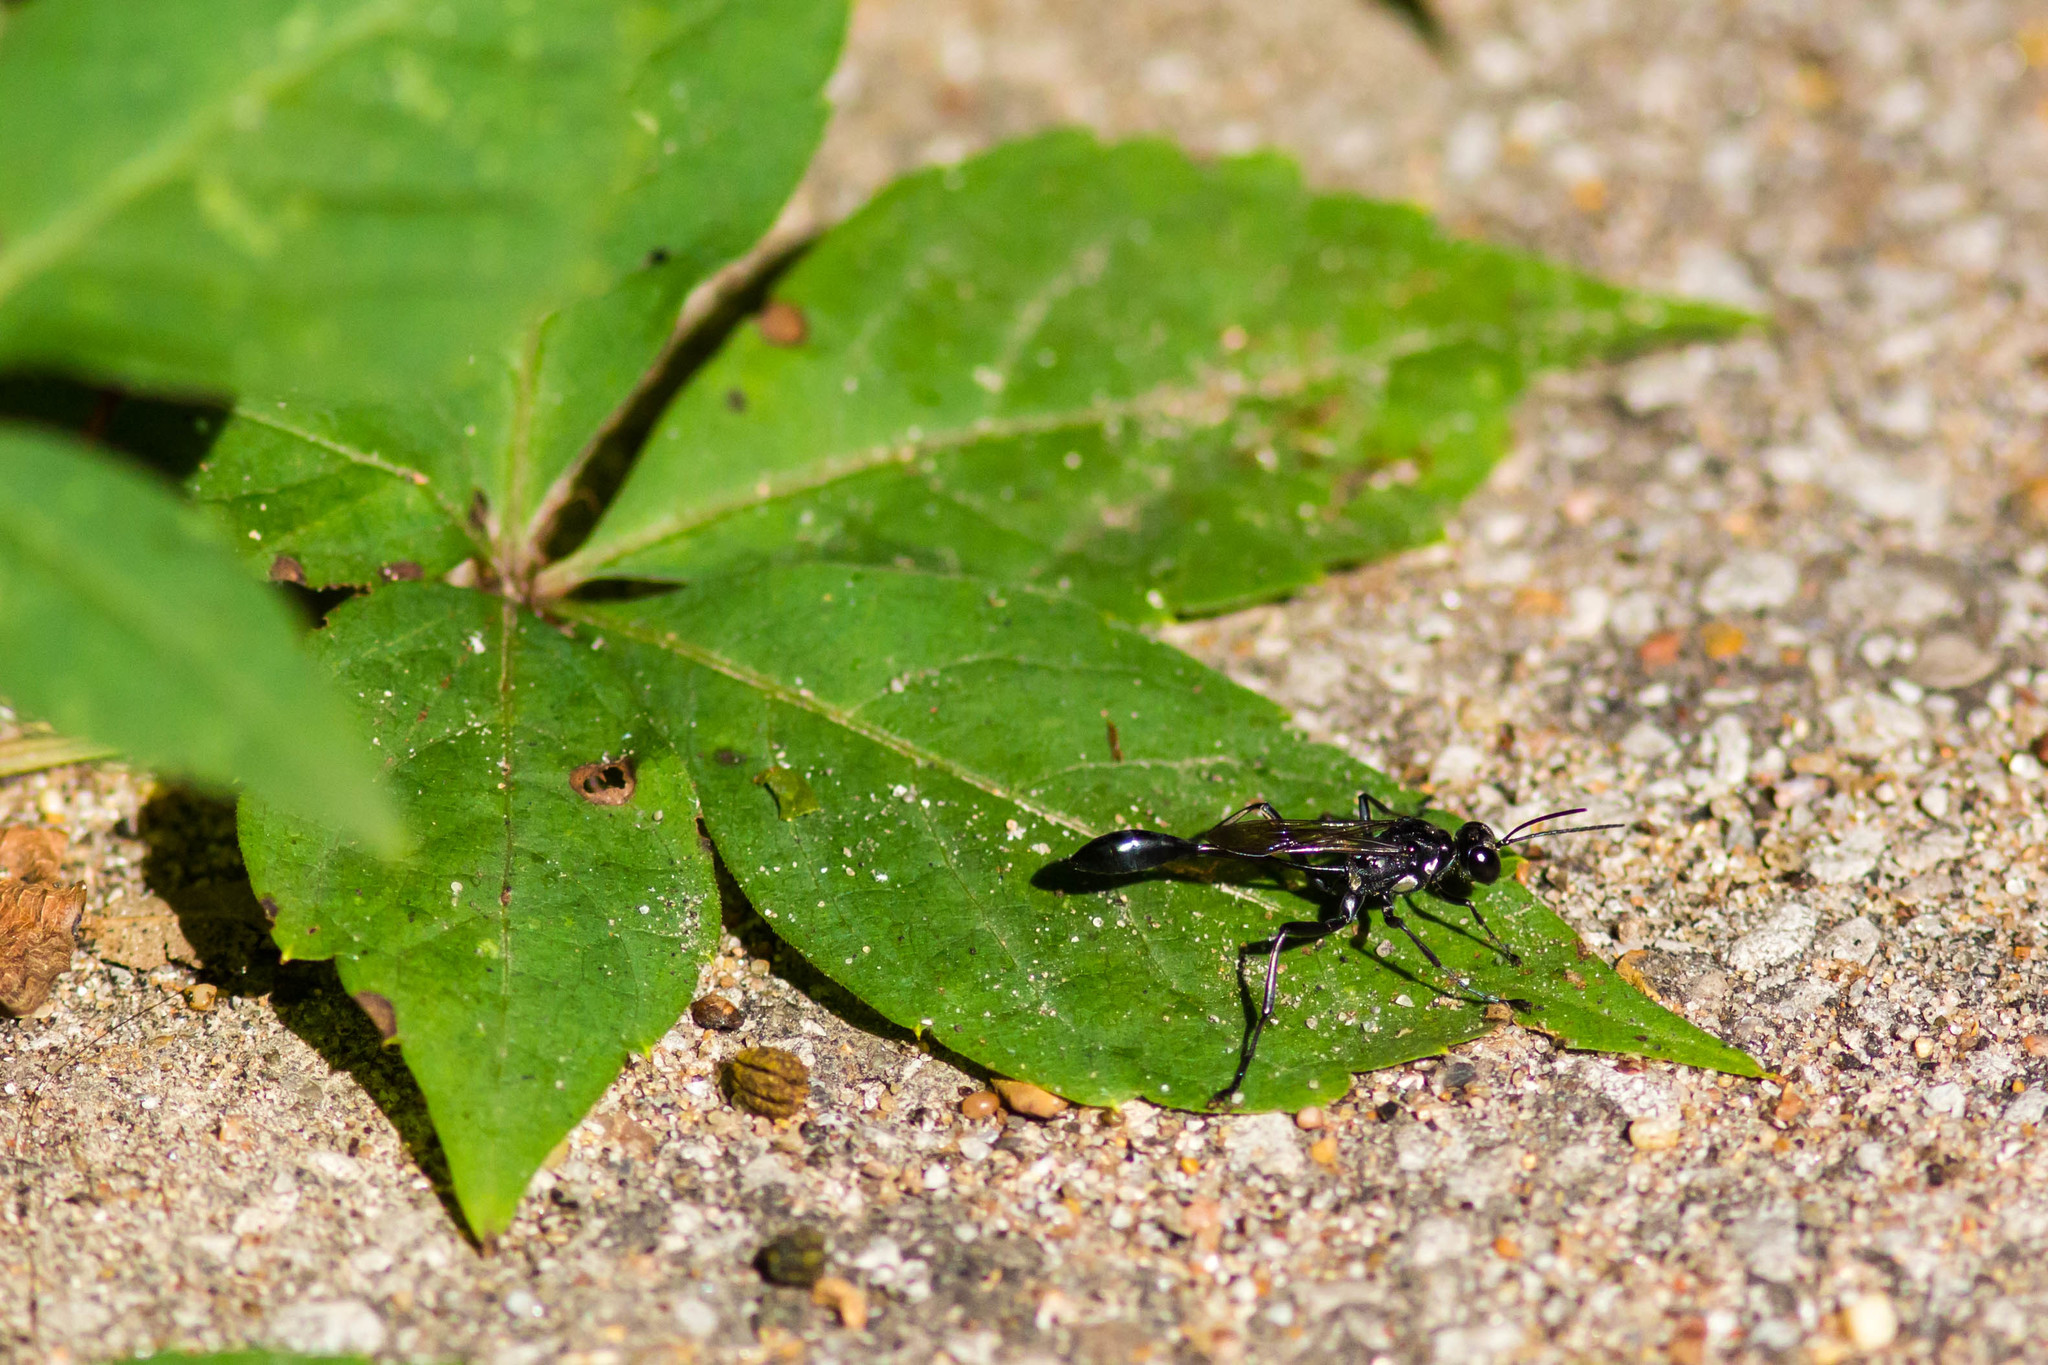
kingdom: Animalia
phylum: Arthropoda
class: Insecta
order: Hymenoptera
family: Sphecidae
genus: Eremnophila
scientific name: Eremnophila aureonotata
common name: Gold-marked thread-waisted wasp
